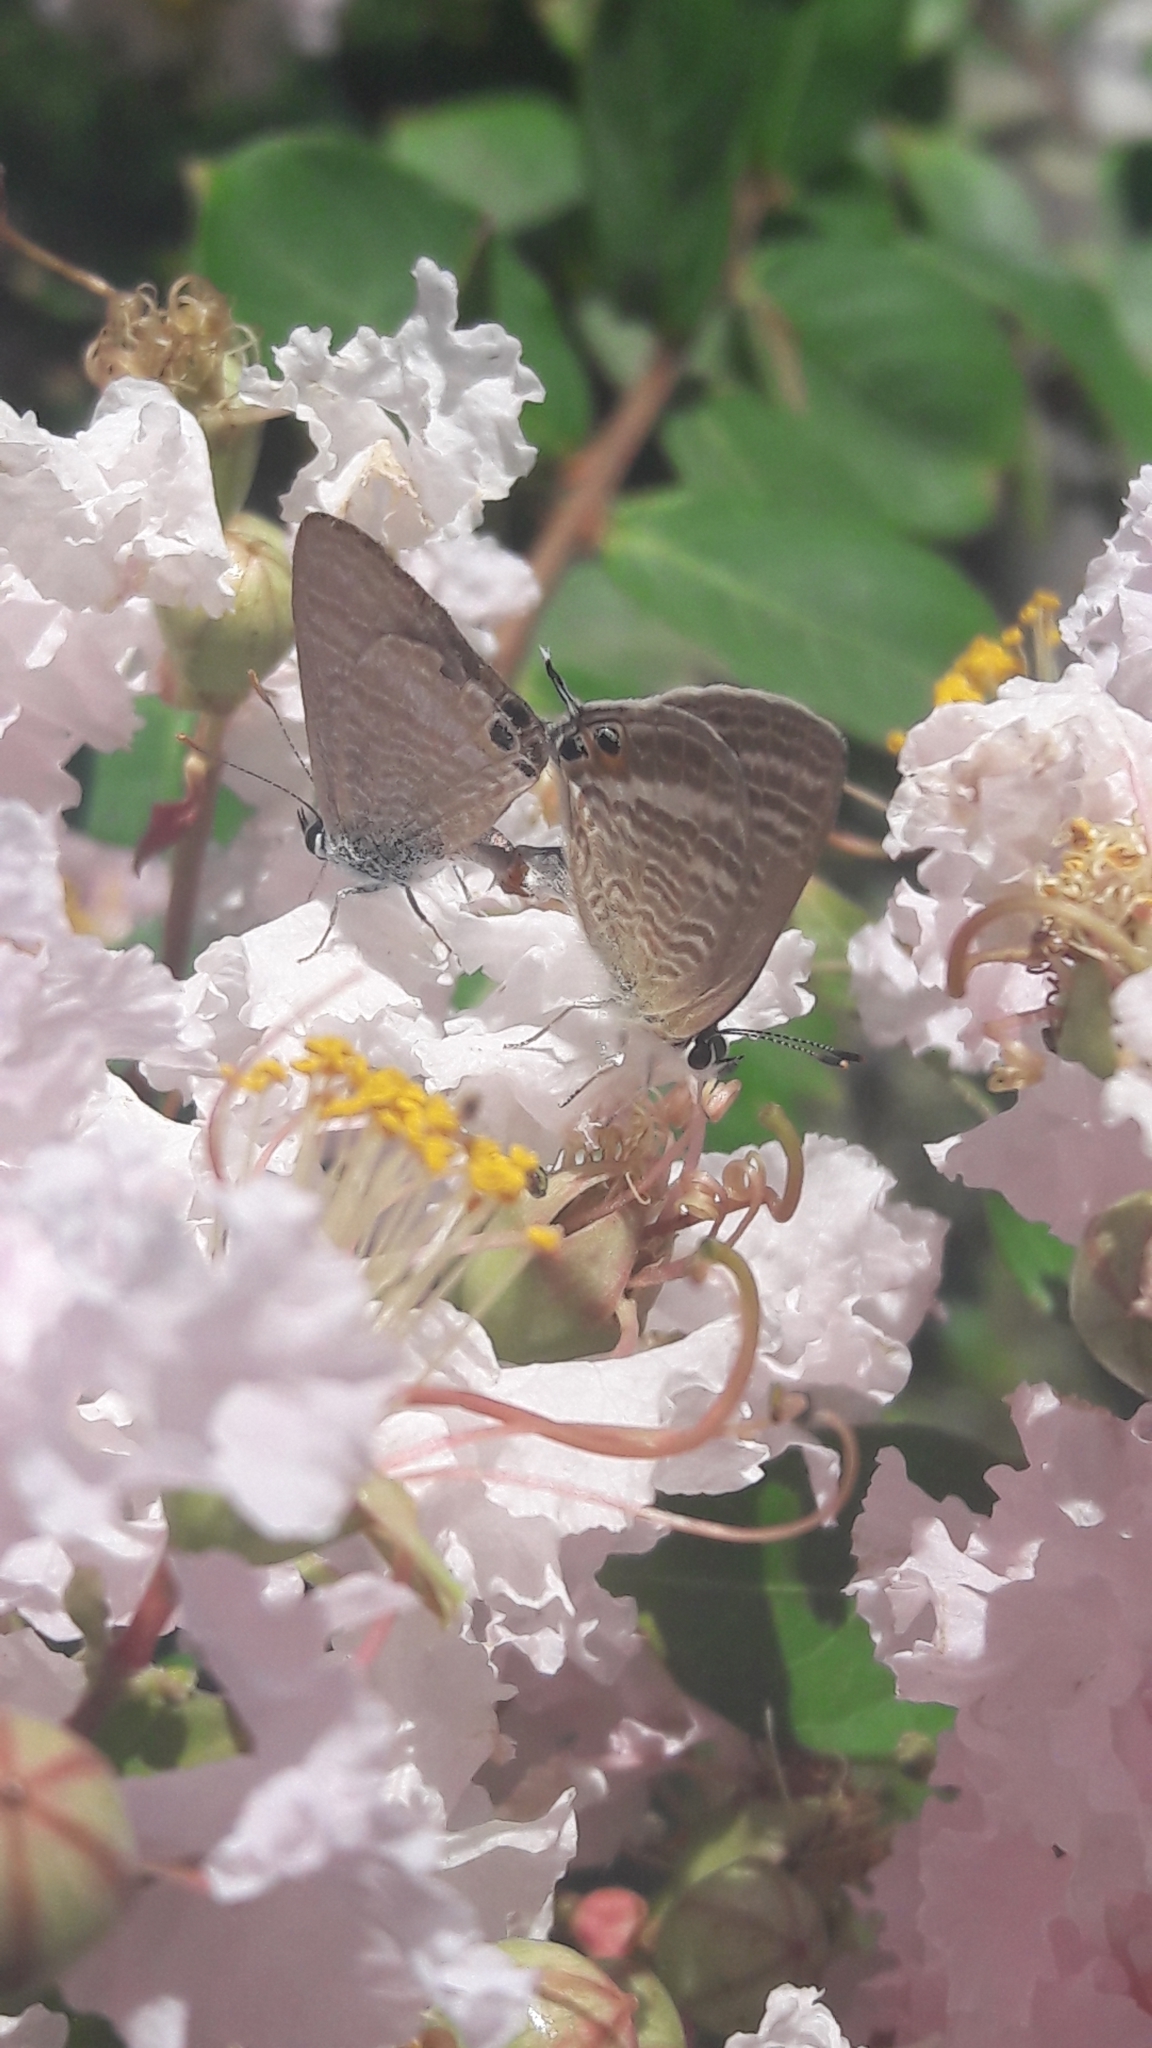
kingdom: Animalia
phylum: Arthropoda
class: Insecta
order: Lepidoptera
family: Lycaenidae
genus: Lampides
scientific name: Lampides boeticus
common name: Long-tailed blue
